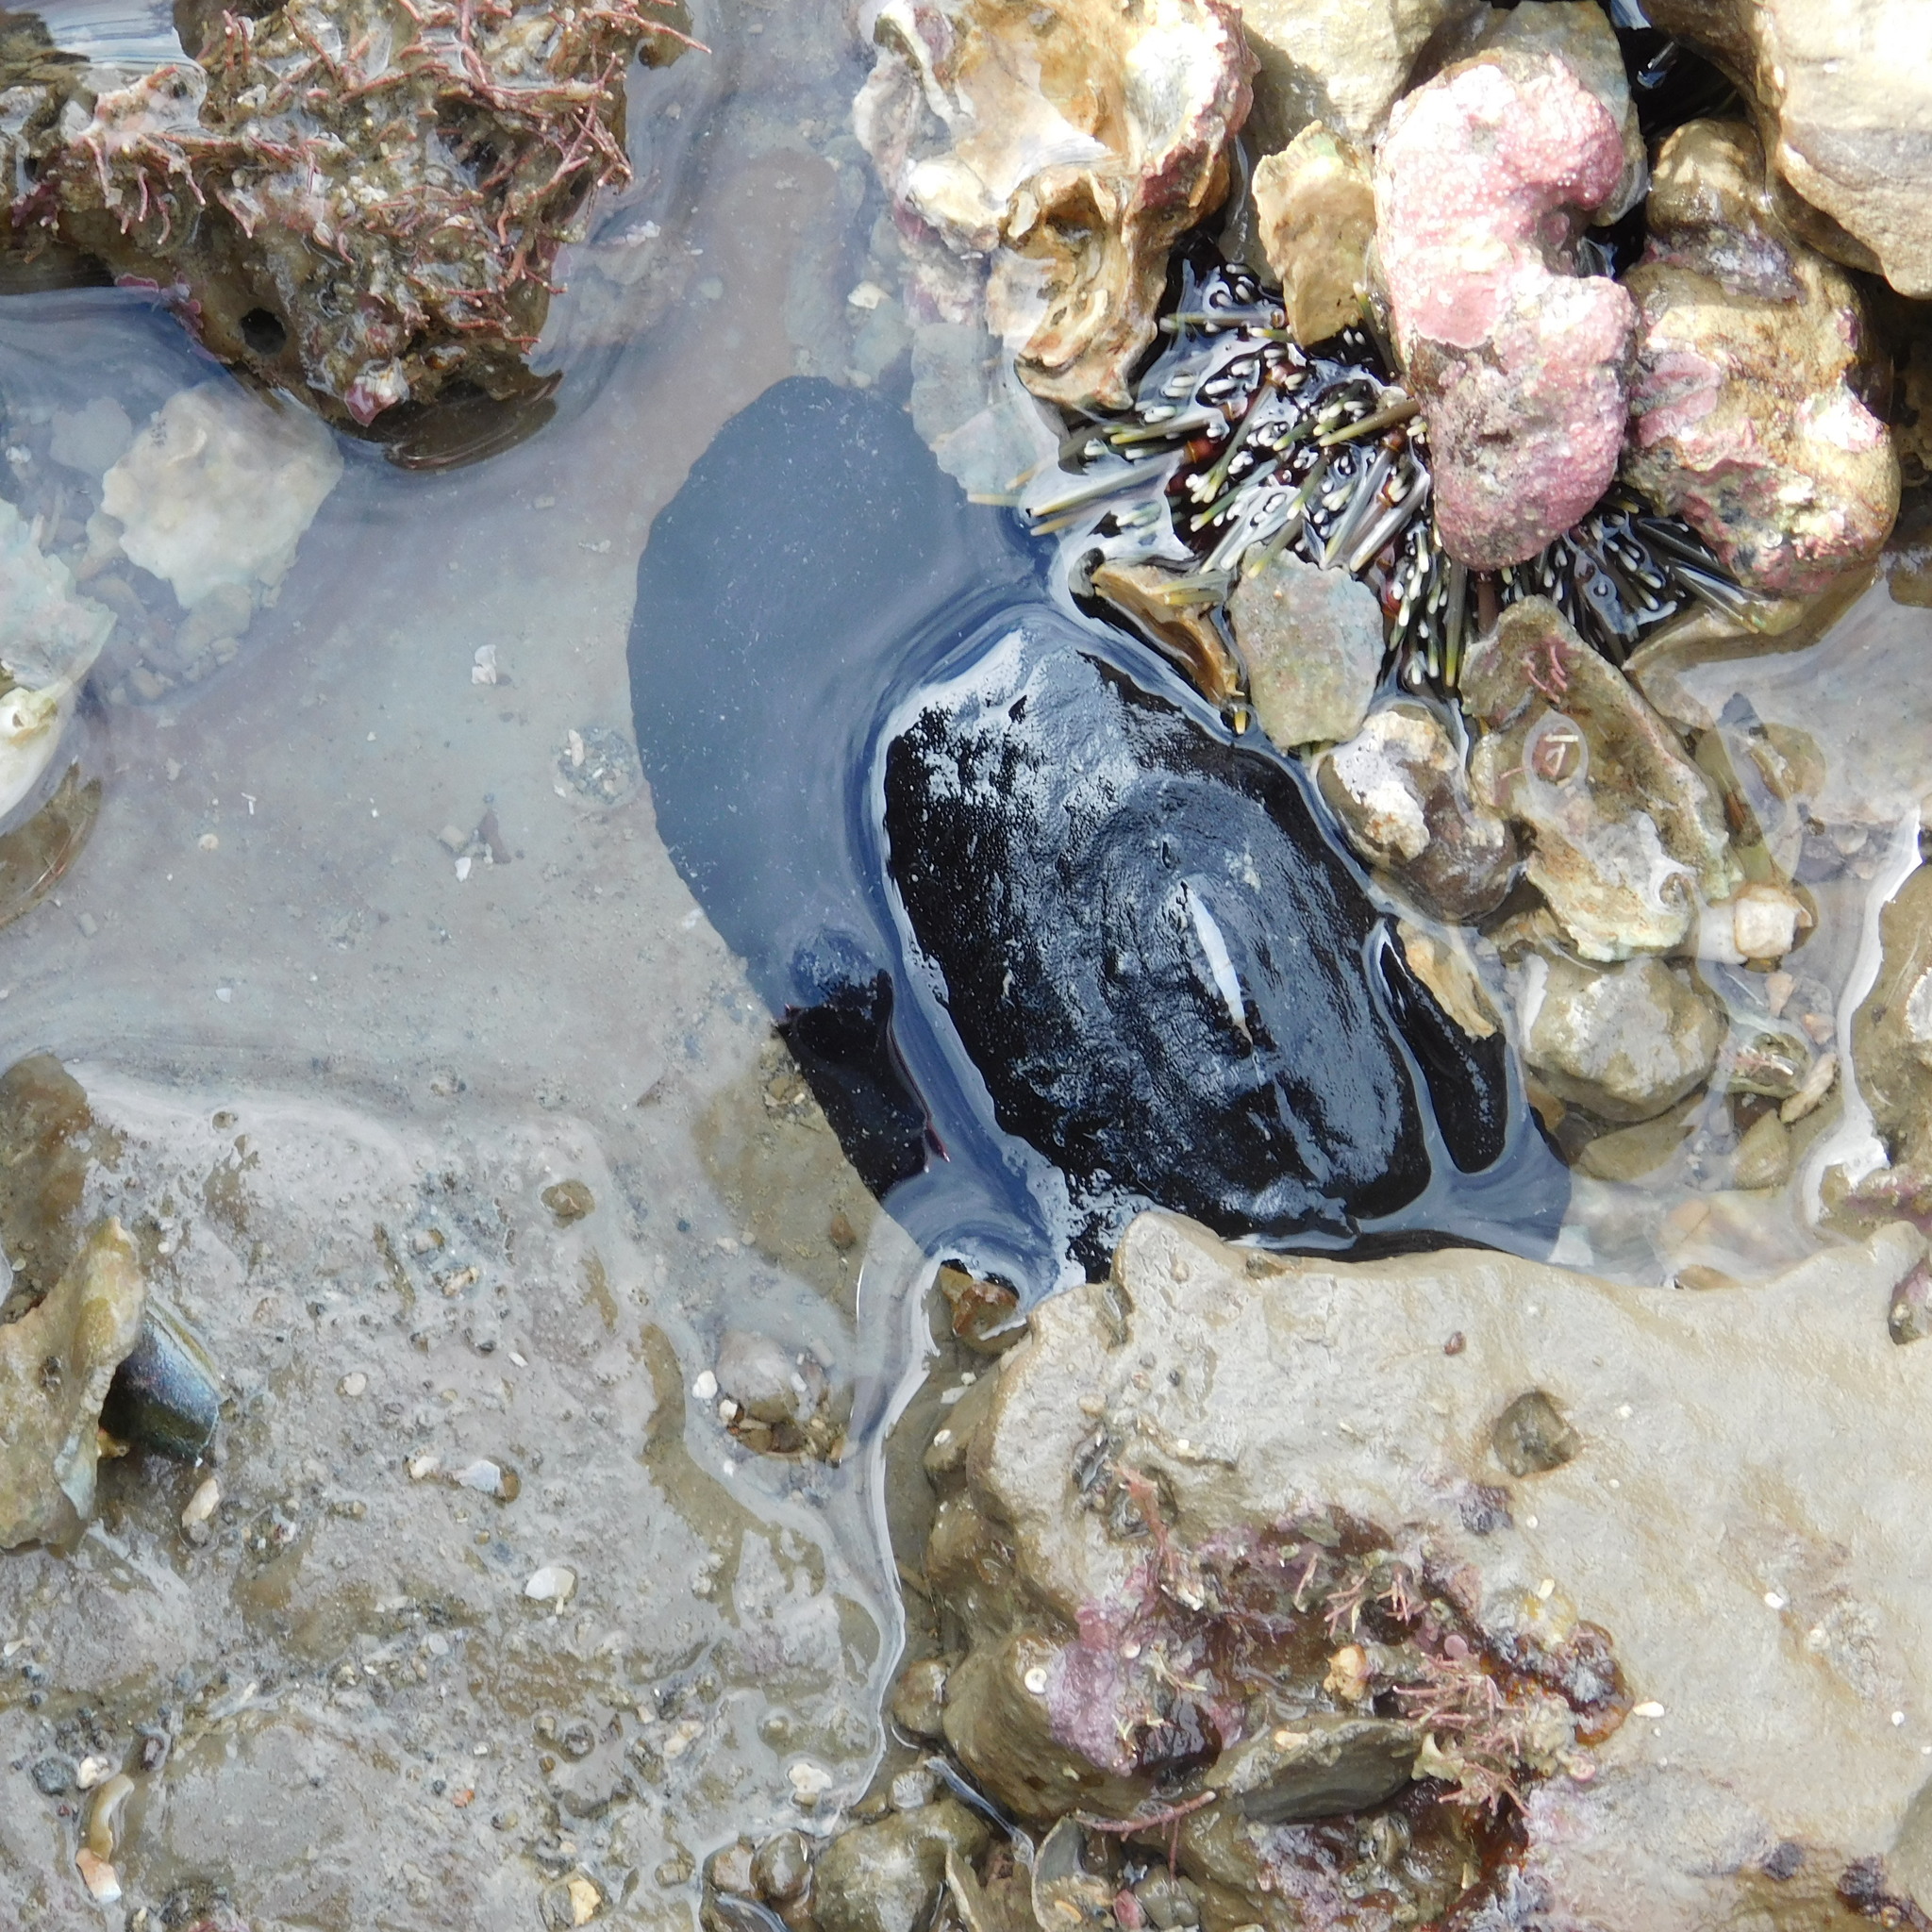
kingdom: Animalia
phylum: Mollusca
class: Gastropoda
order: Lepetellida
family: Fissurellidae
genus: Scutus
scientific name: Scutus breviculus
